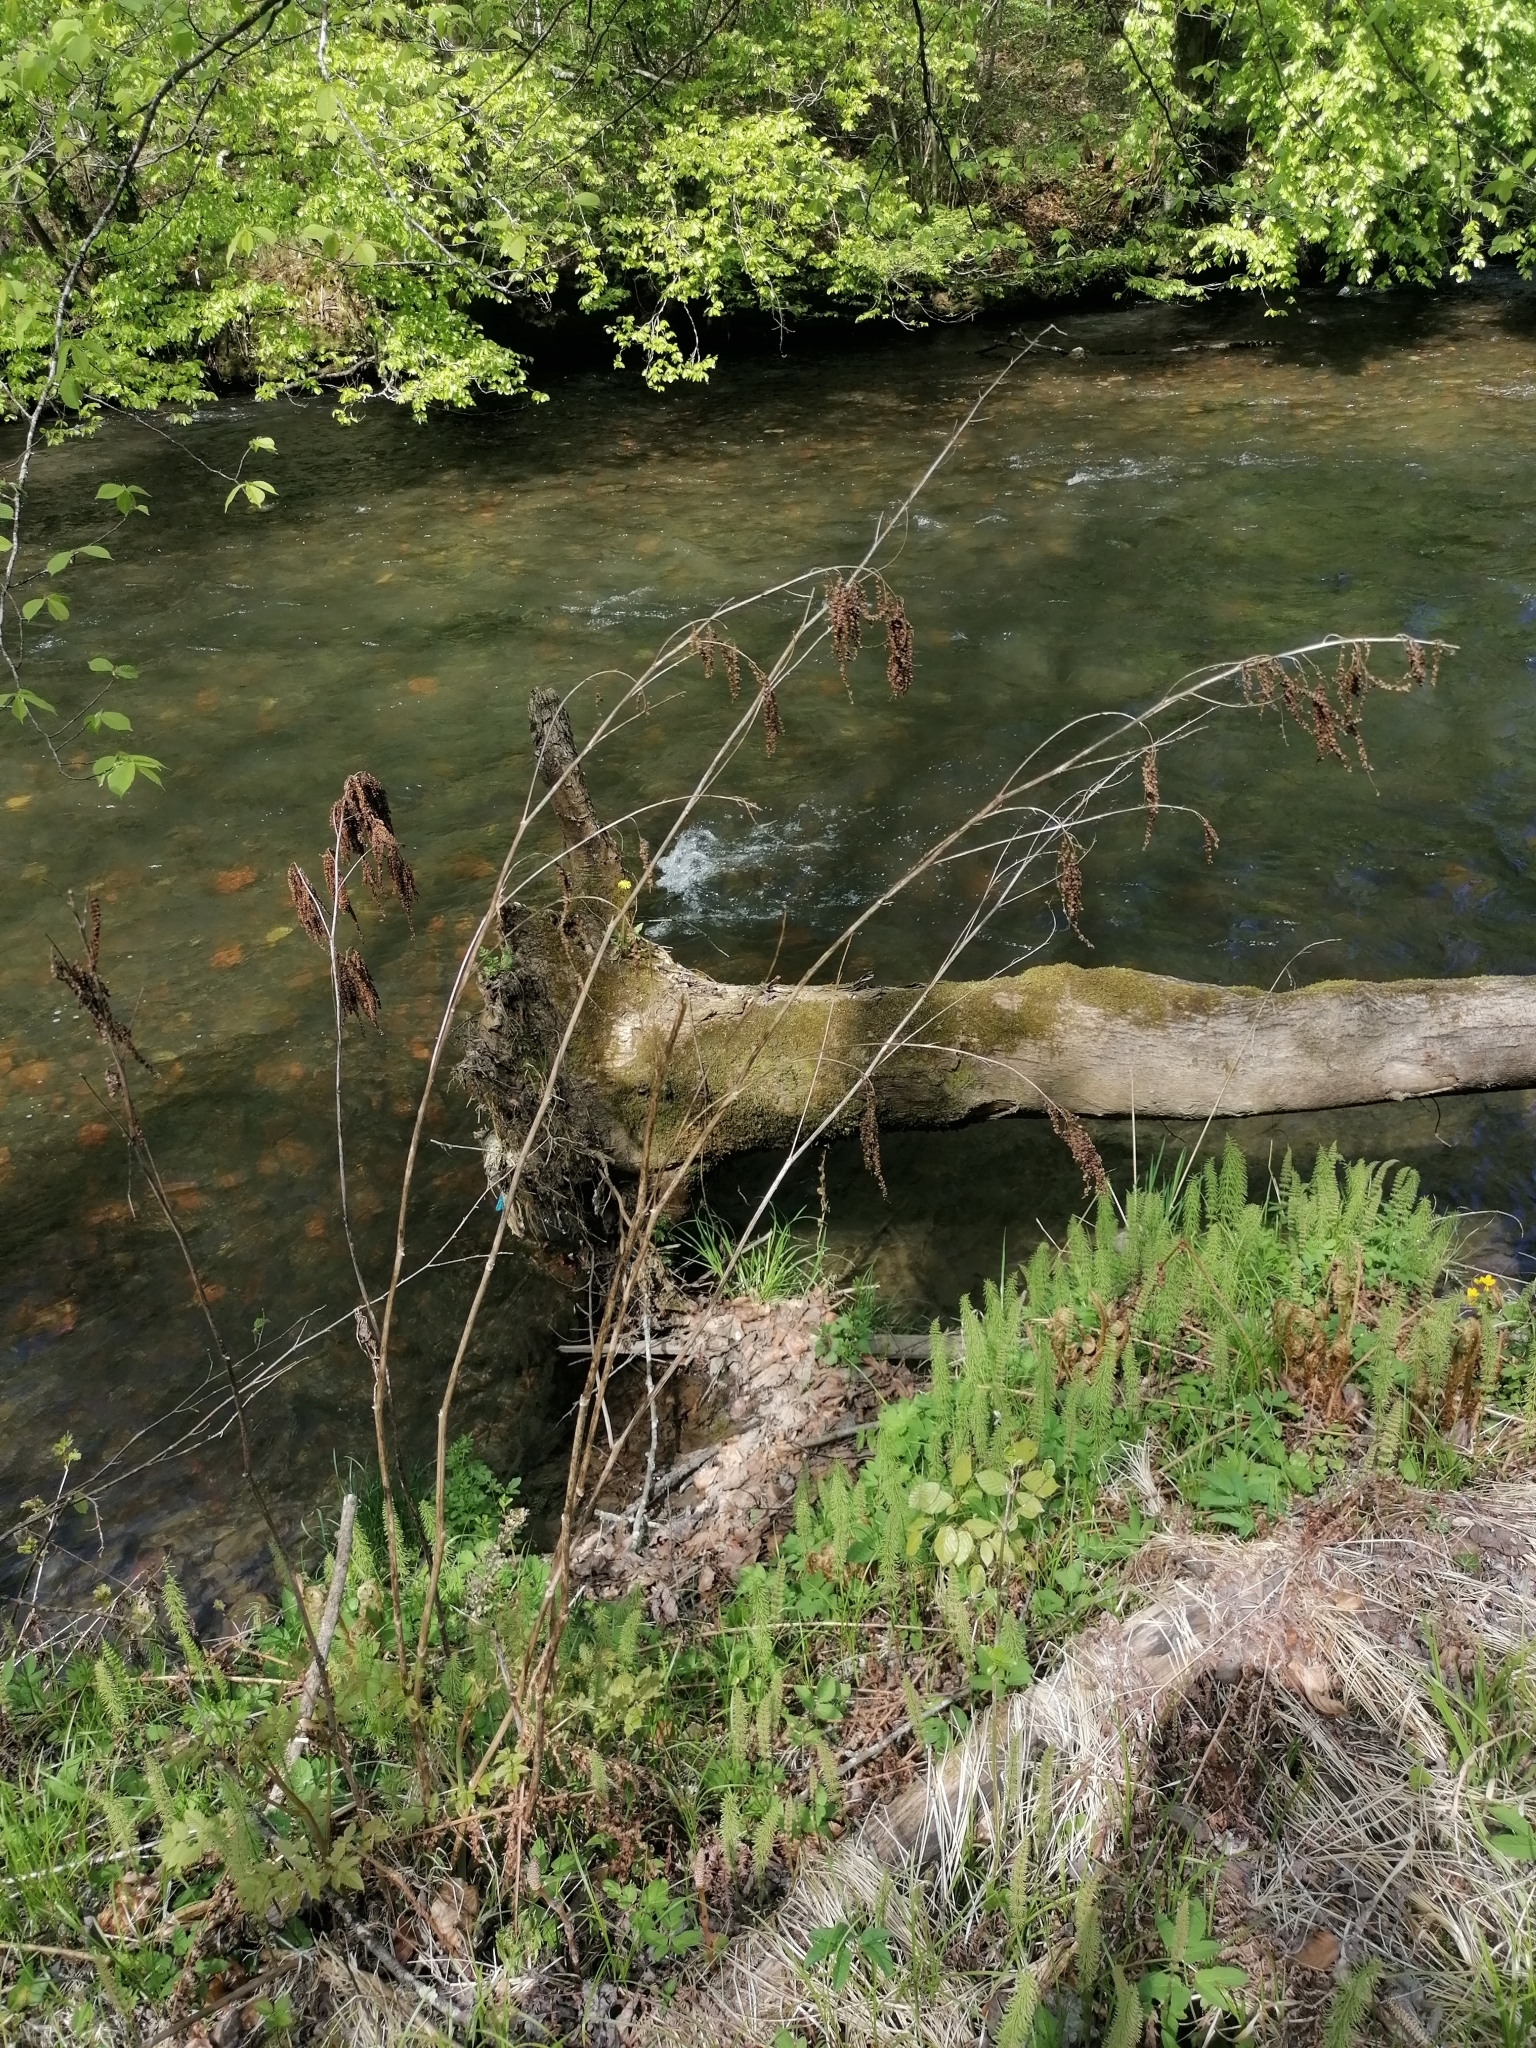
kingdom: Plantae
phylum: Tracheophyta
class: Magnoliopsida
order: Rosales
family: Rosaceae
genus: Aruncus
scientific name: Aruncus dioicus
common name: Buck's-beard
